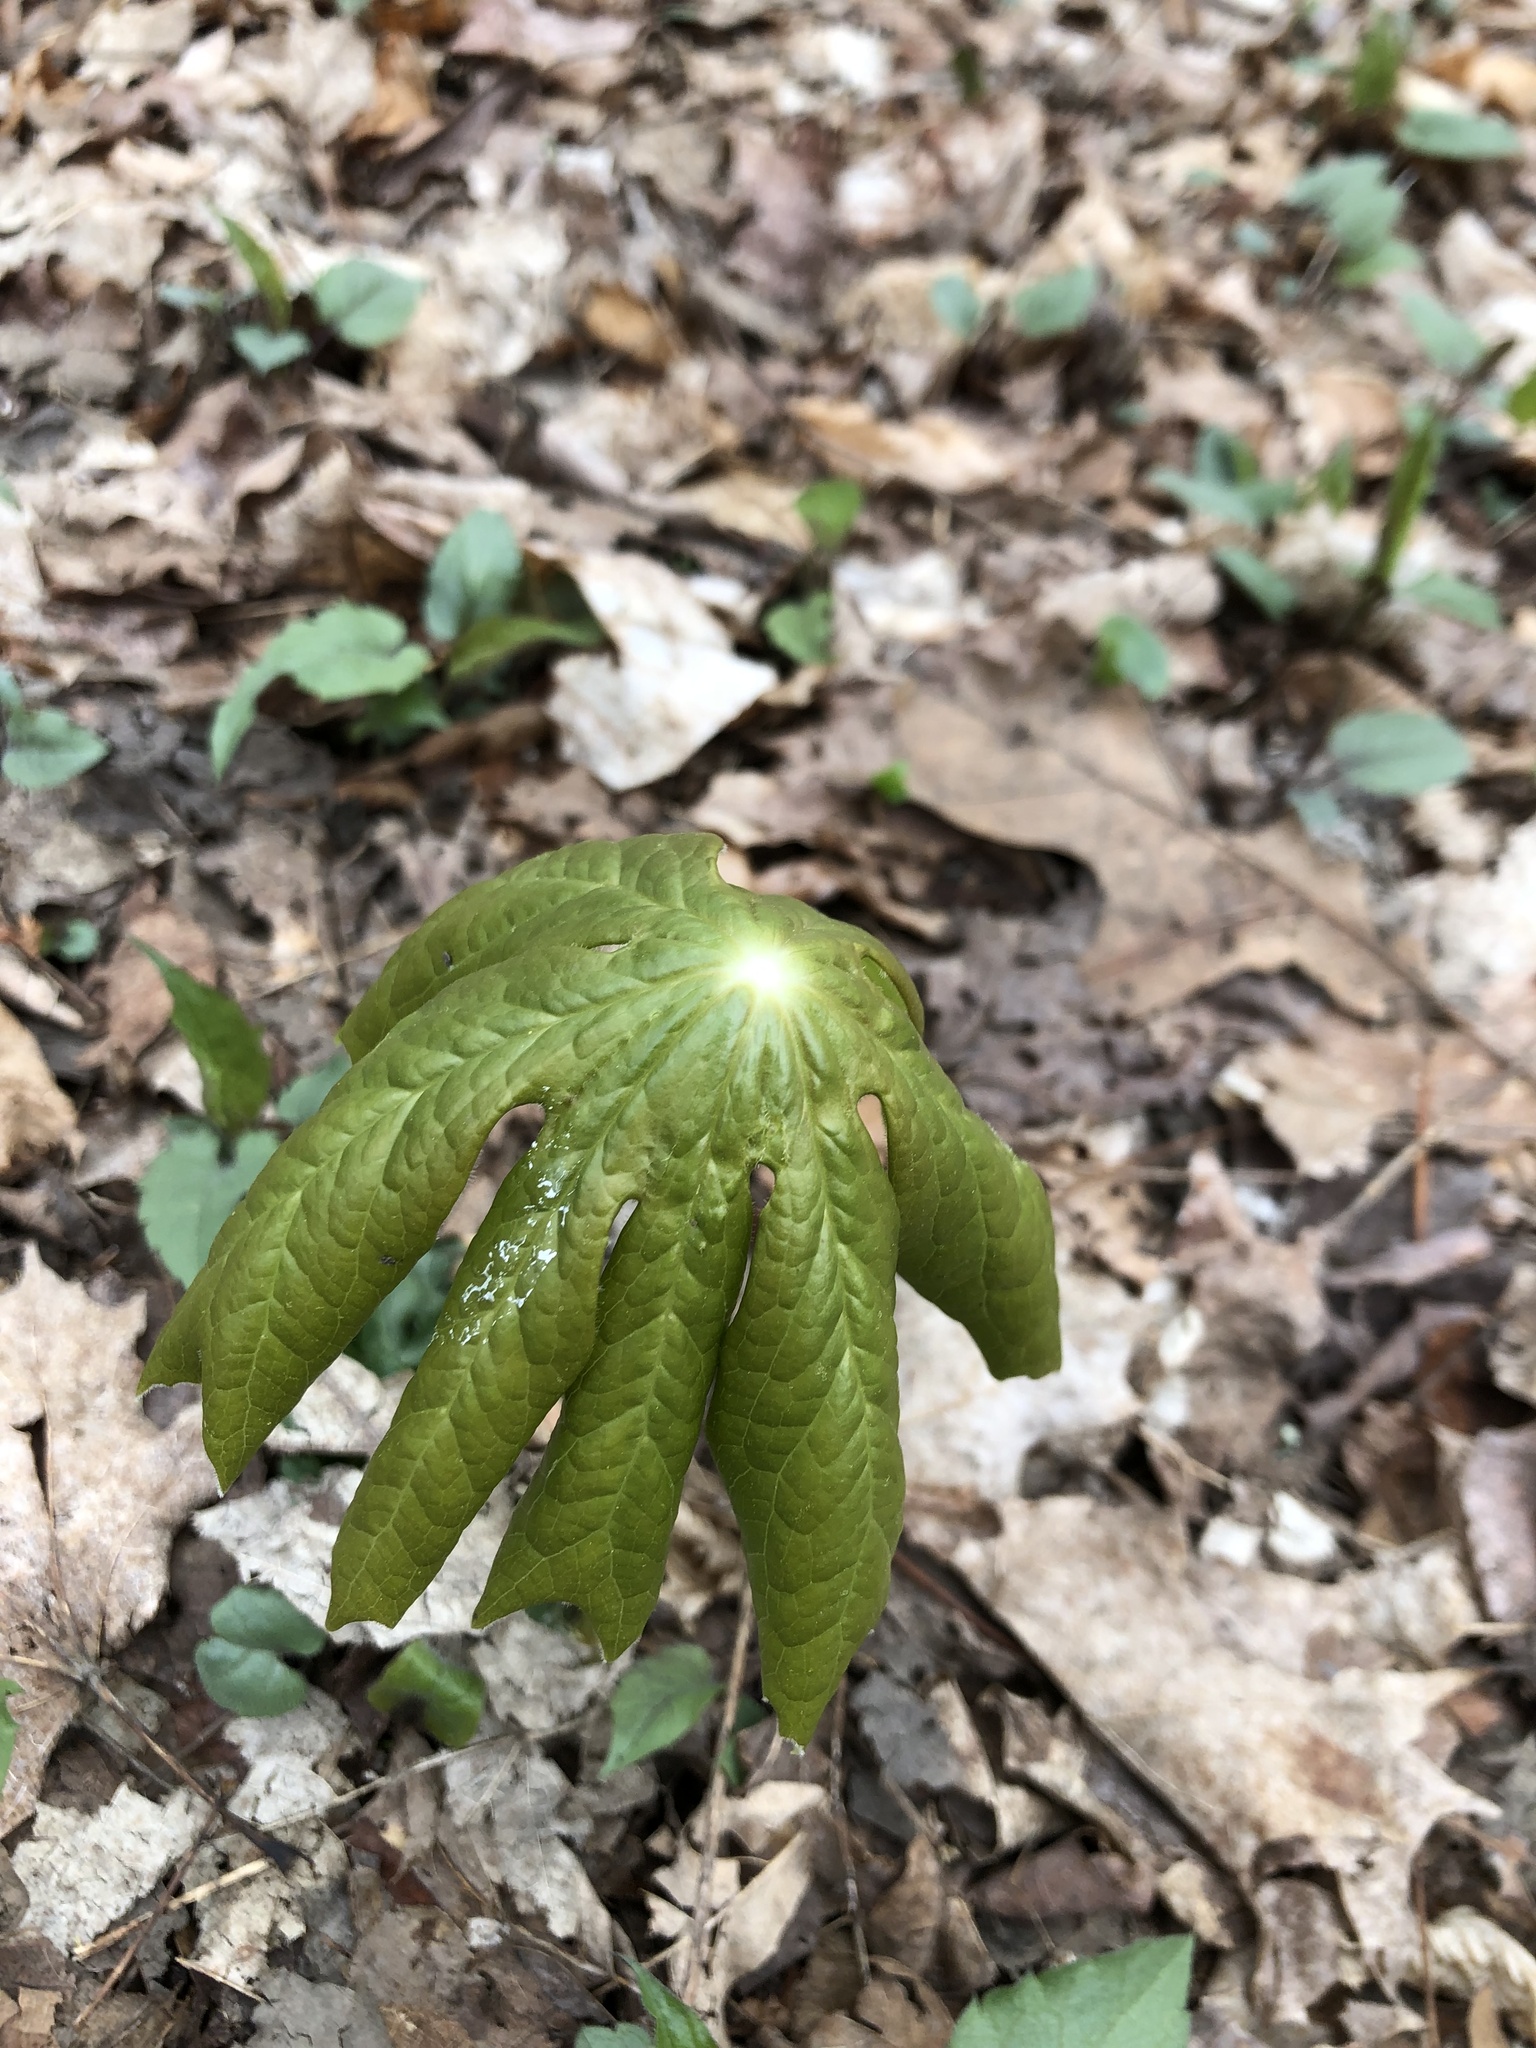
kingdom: Plantae
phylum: Tracheophyta
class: Magnoliopsida
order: Ranunculales
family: Berberidaceae
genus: Podophyllum
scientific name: Podophyllum peltatum
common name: Wild mandrake
